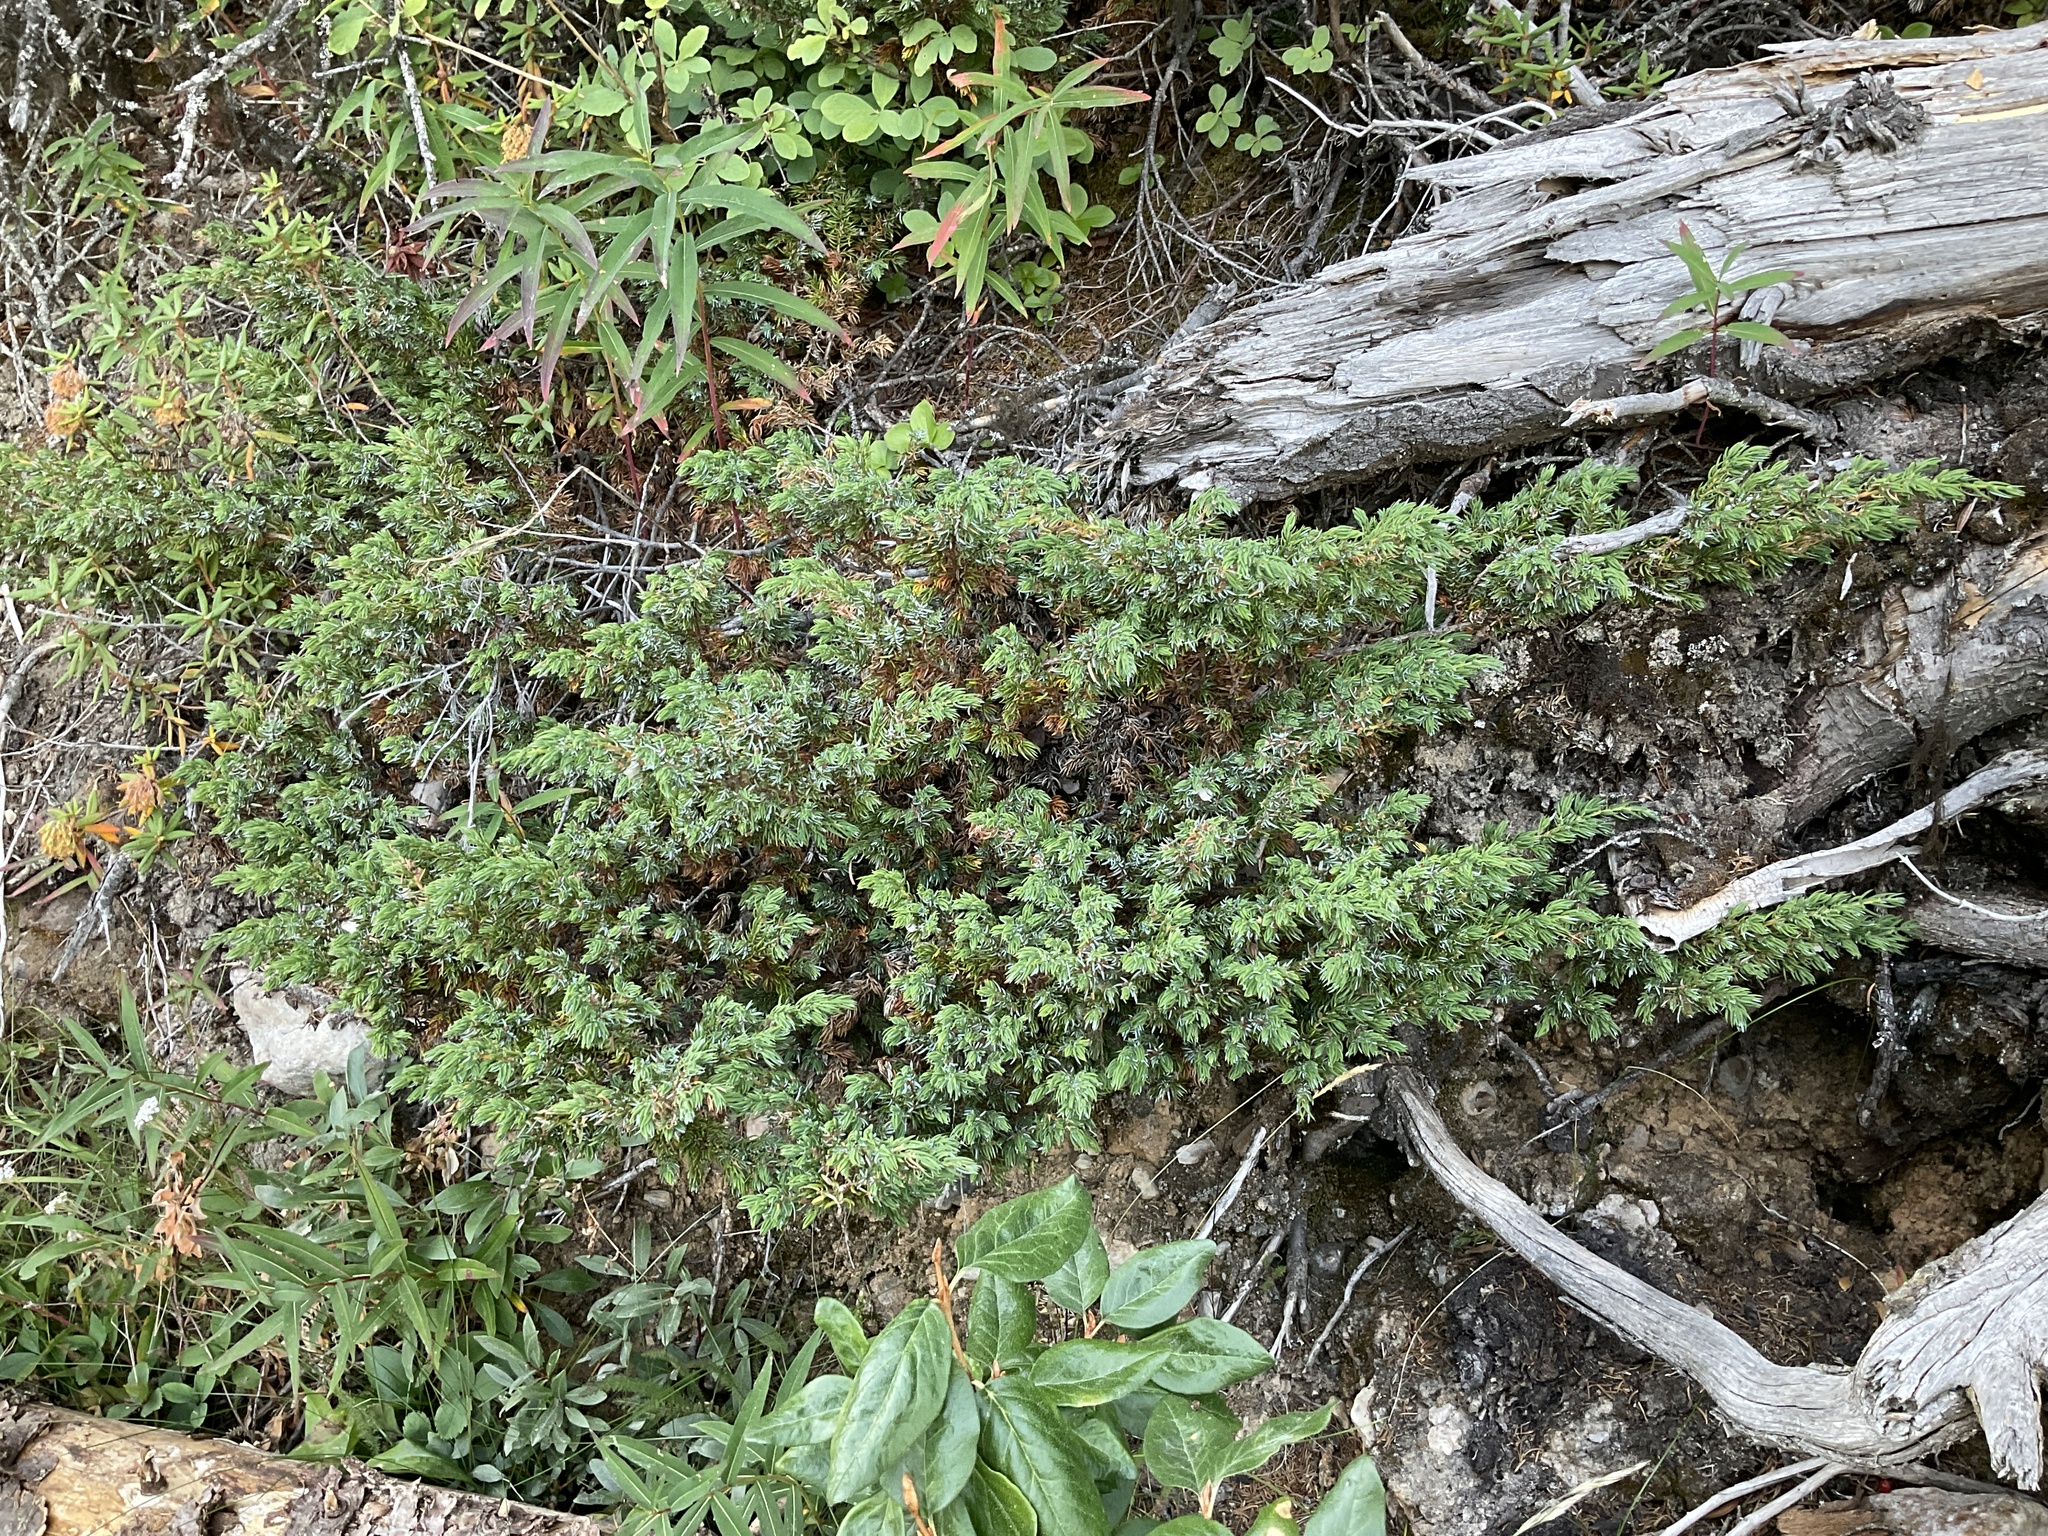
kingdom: Plantae
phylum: Tracheophyta
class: Pinopsida
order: Pinales
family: Cupressaceae
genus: Juniperus
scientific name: Juniperus communis
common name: Common juniper
